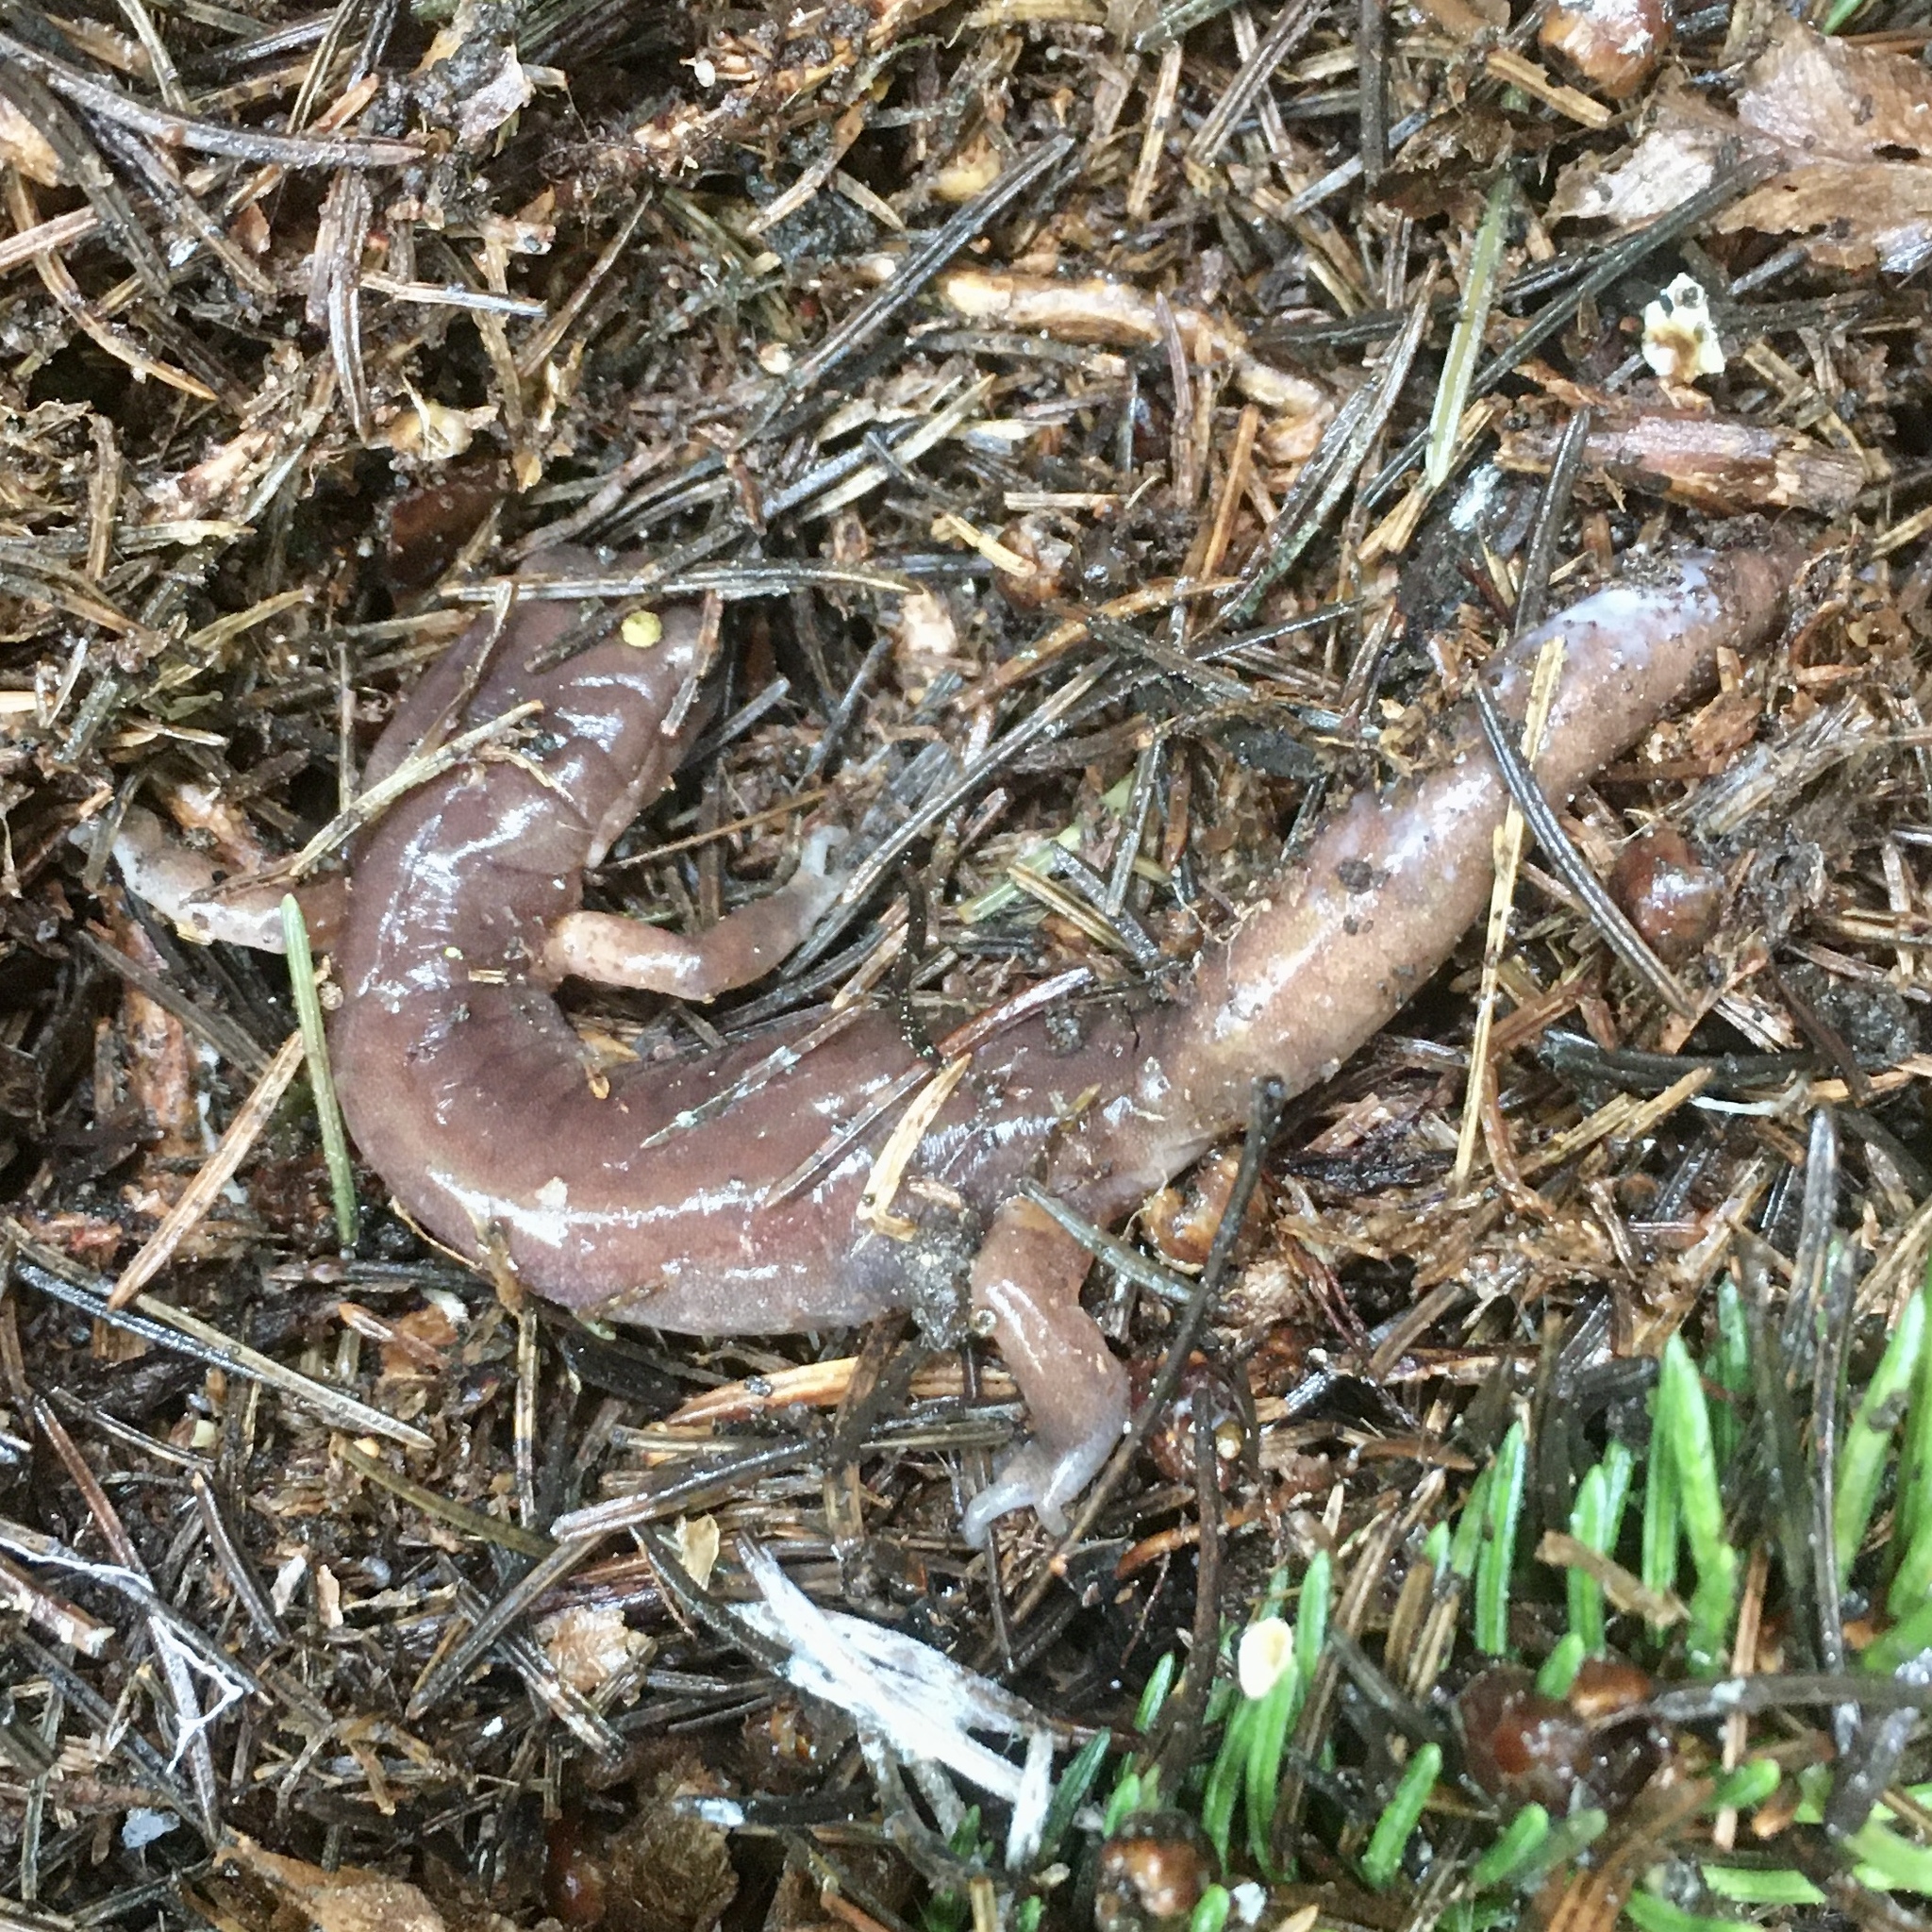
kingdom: Animalia
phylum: Chordata
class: Amphibia
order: Caudata
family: Plethodontidae
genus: Ensatina
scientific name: Ensatina eschscholtzii
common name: Ensatina
